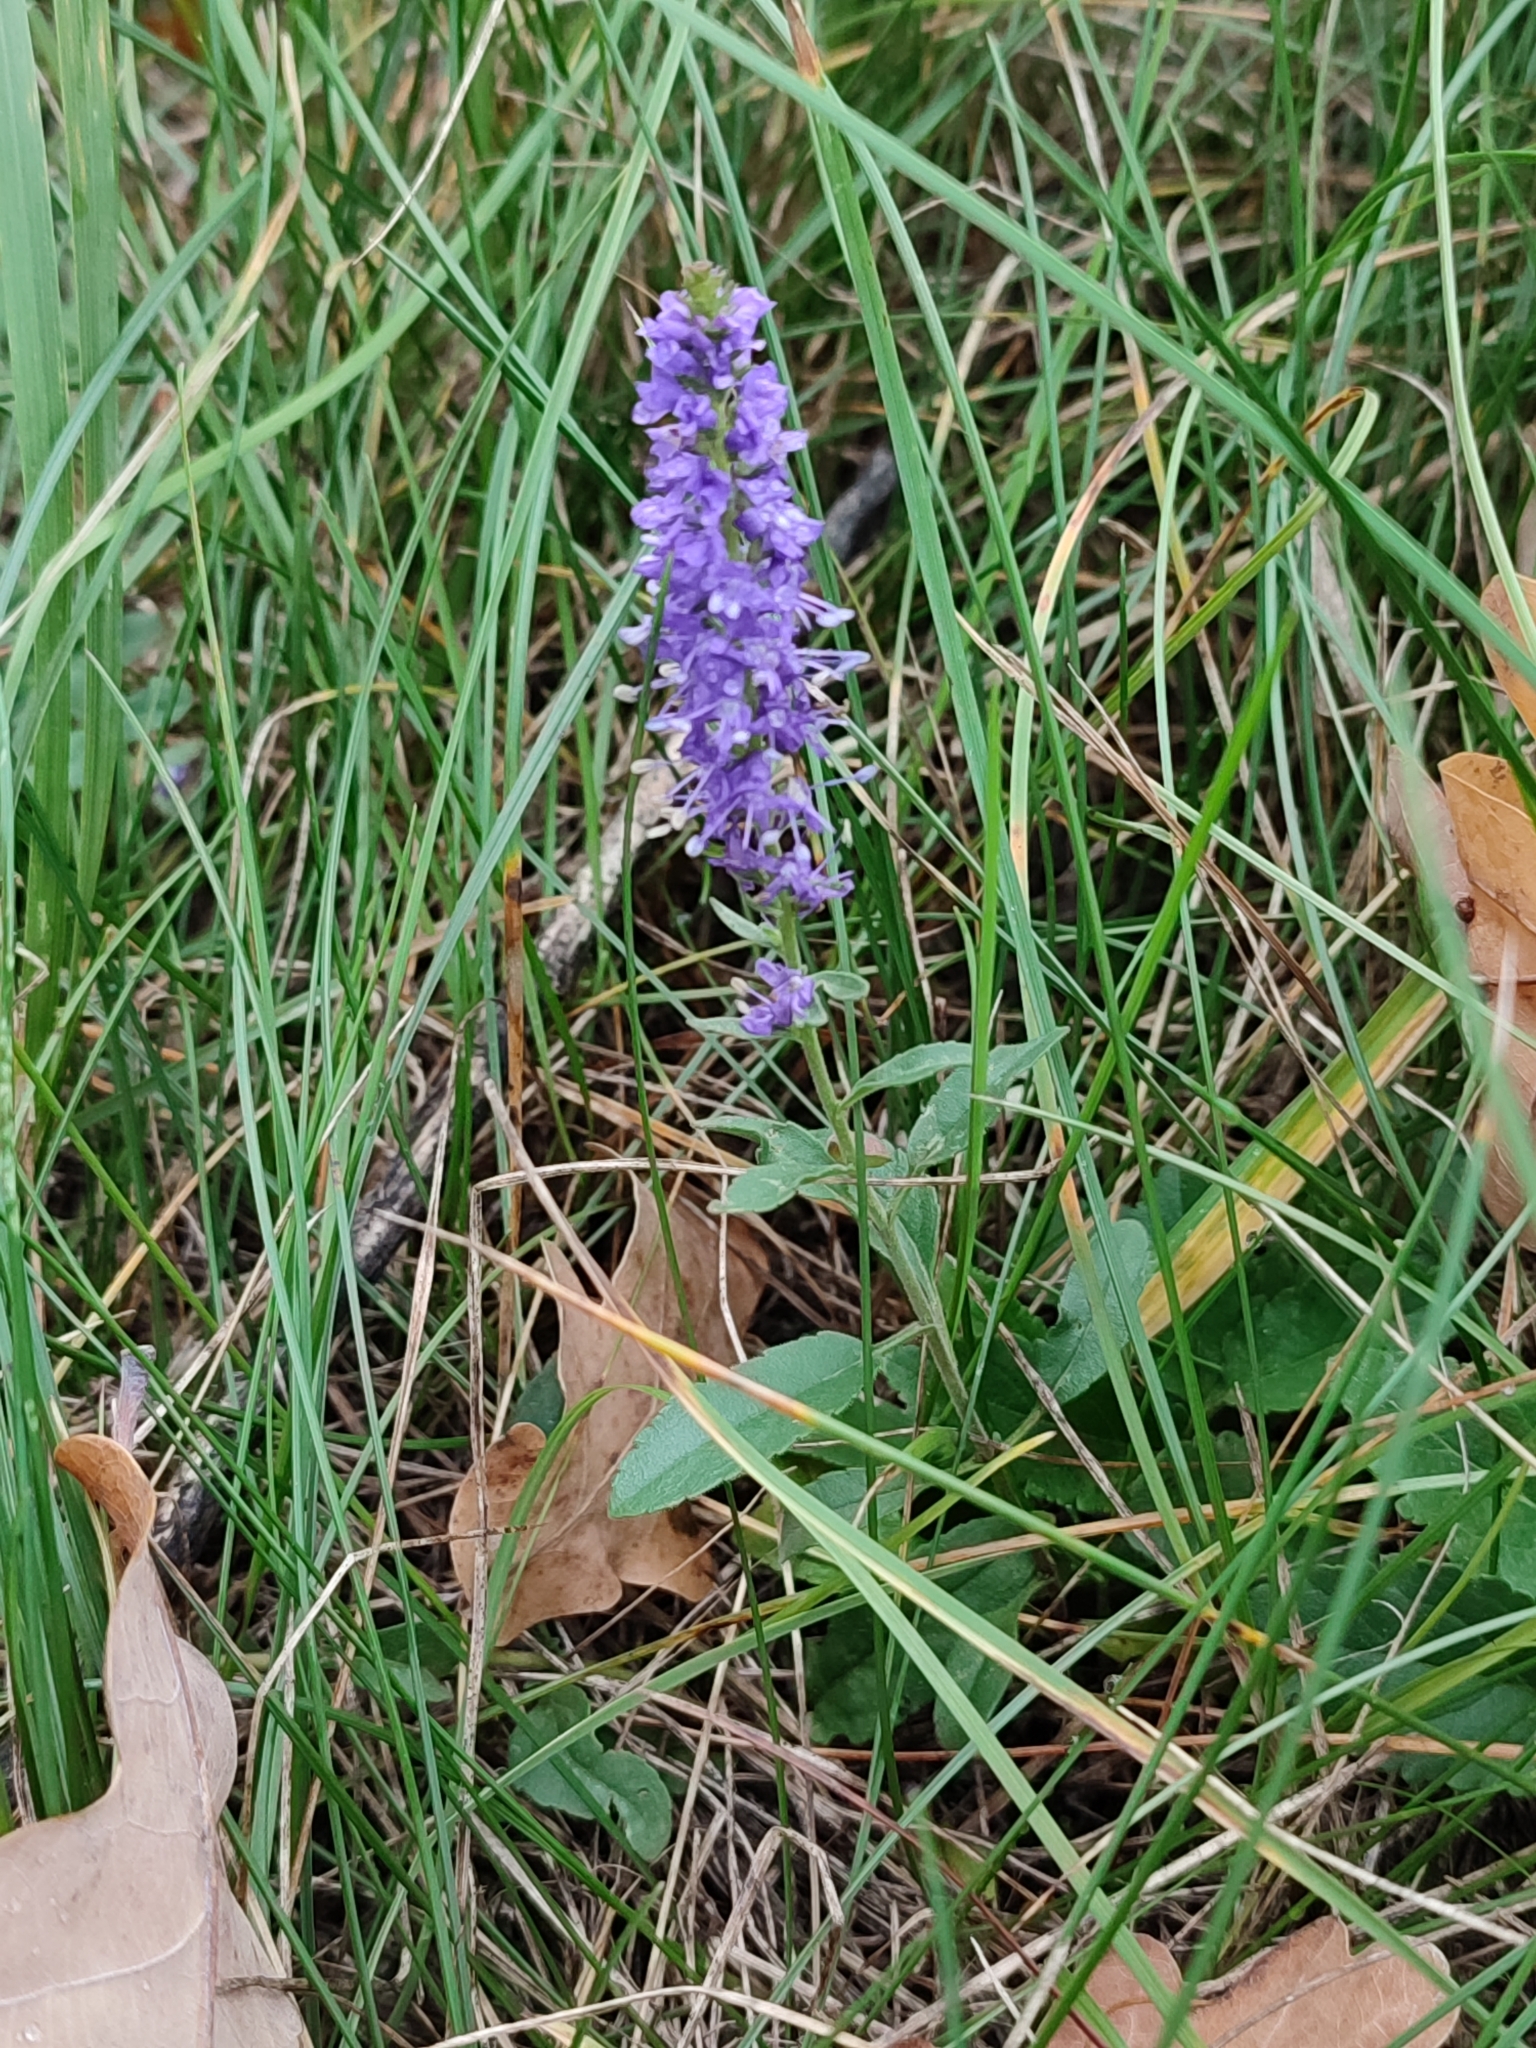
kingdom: Plantae
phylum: Tracheophyta
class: Magnoliopsida
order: Lamiales
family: Plantaginaceae
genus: Veronica
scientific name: Veronica spicata
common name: Spiked speedwell
